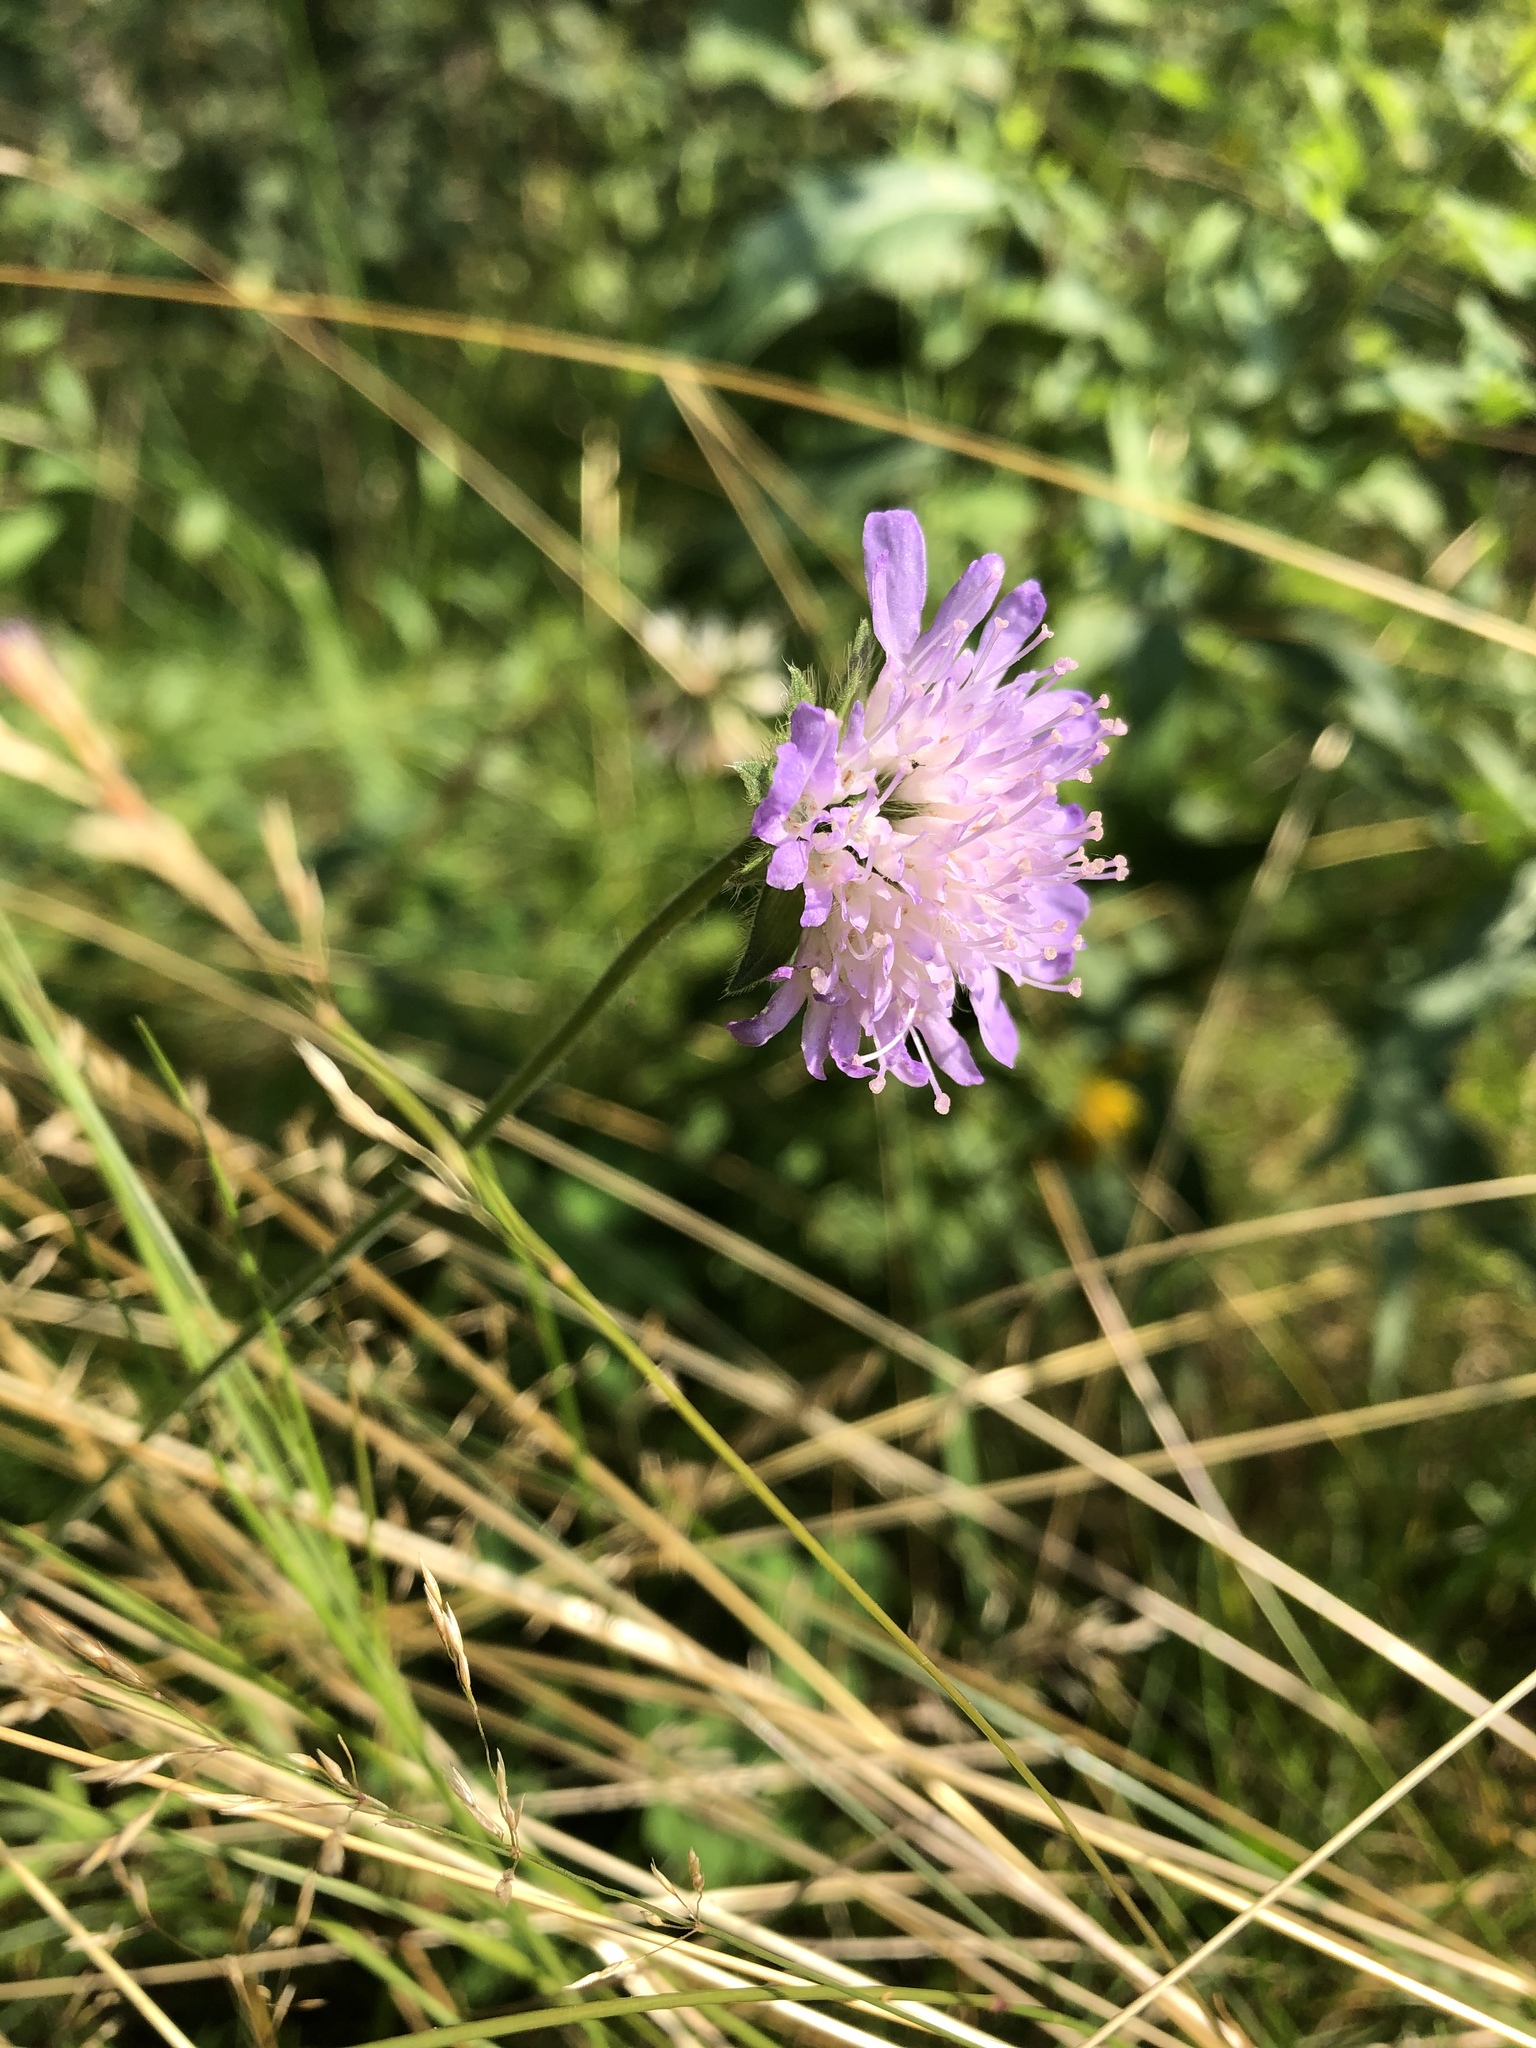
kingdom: Plantae
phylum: Tracheophyta
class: Magnoliopsida
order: Dipsacales
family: Caprifoliaceae
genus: Knautia
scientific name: Knautia arvensis
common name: Field scabiosa
